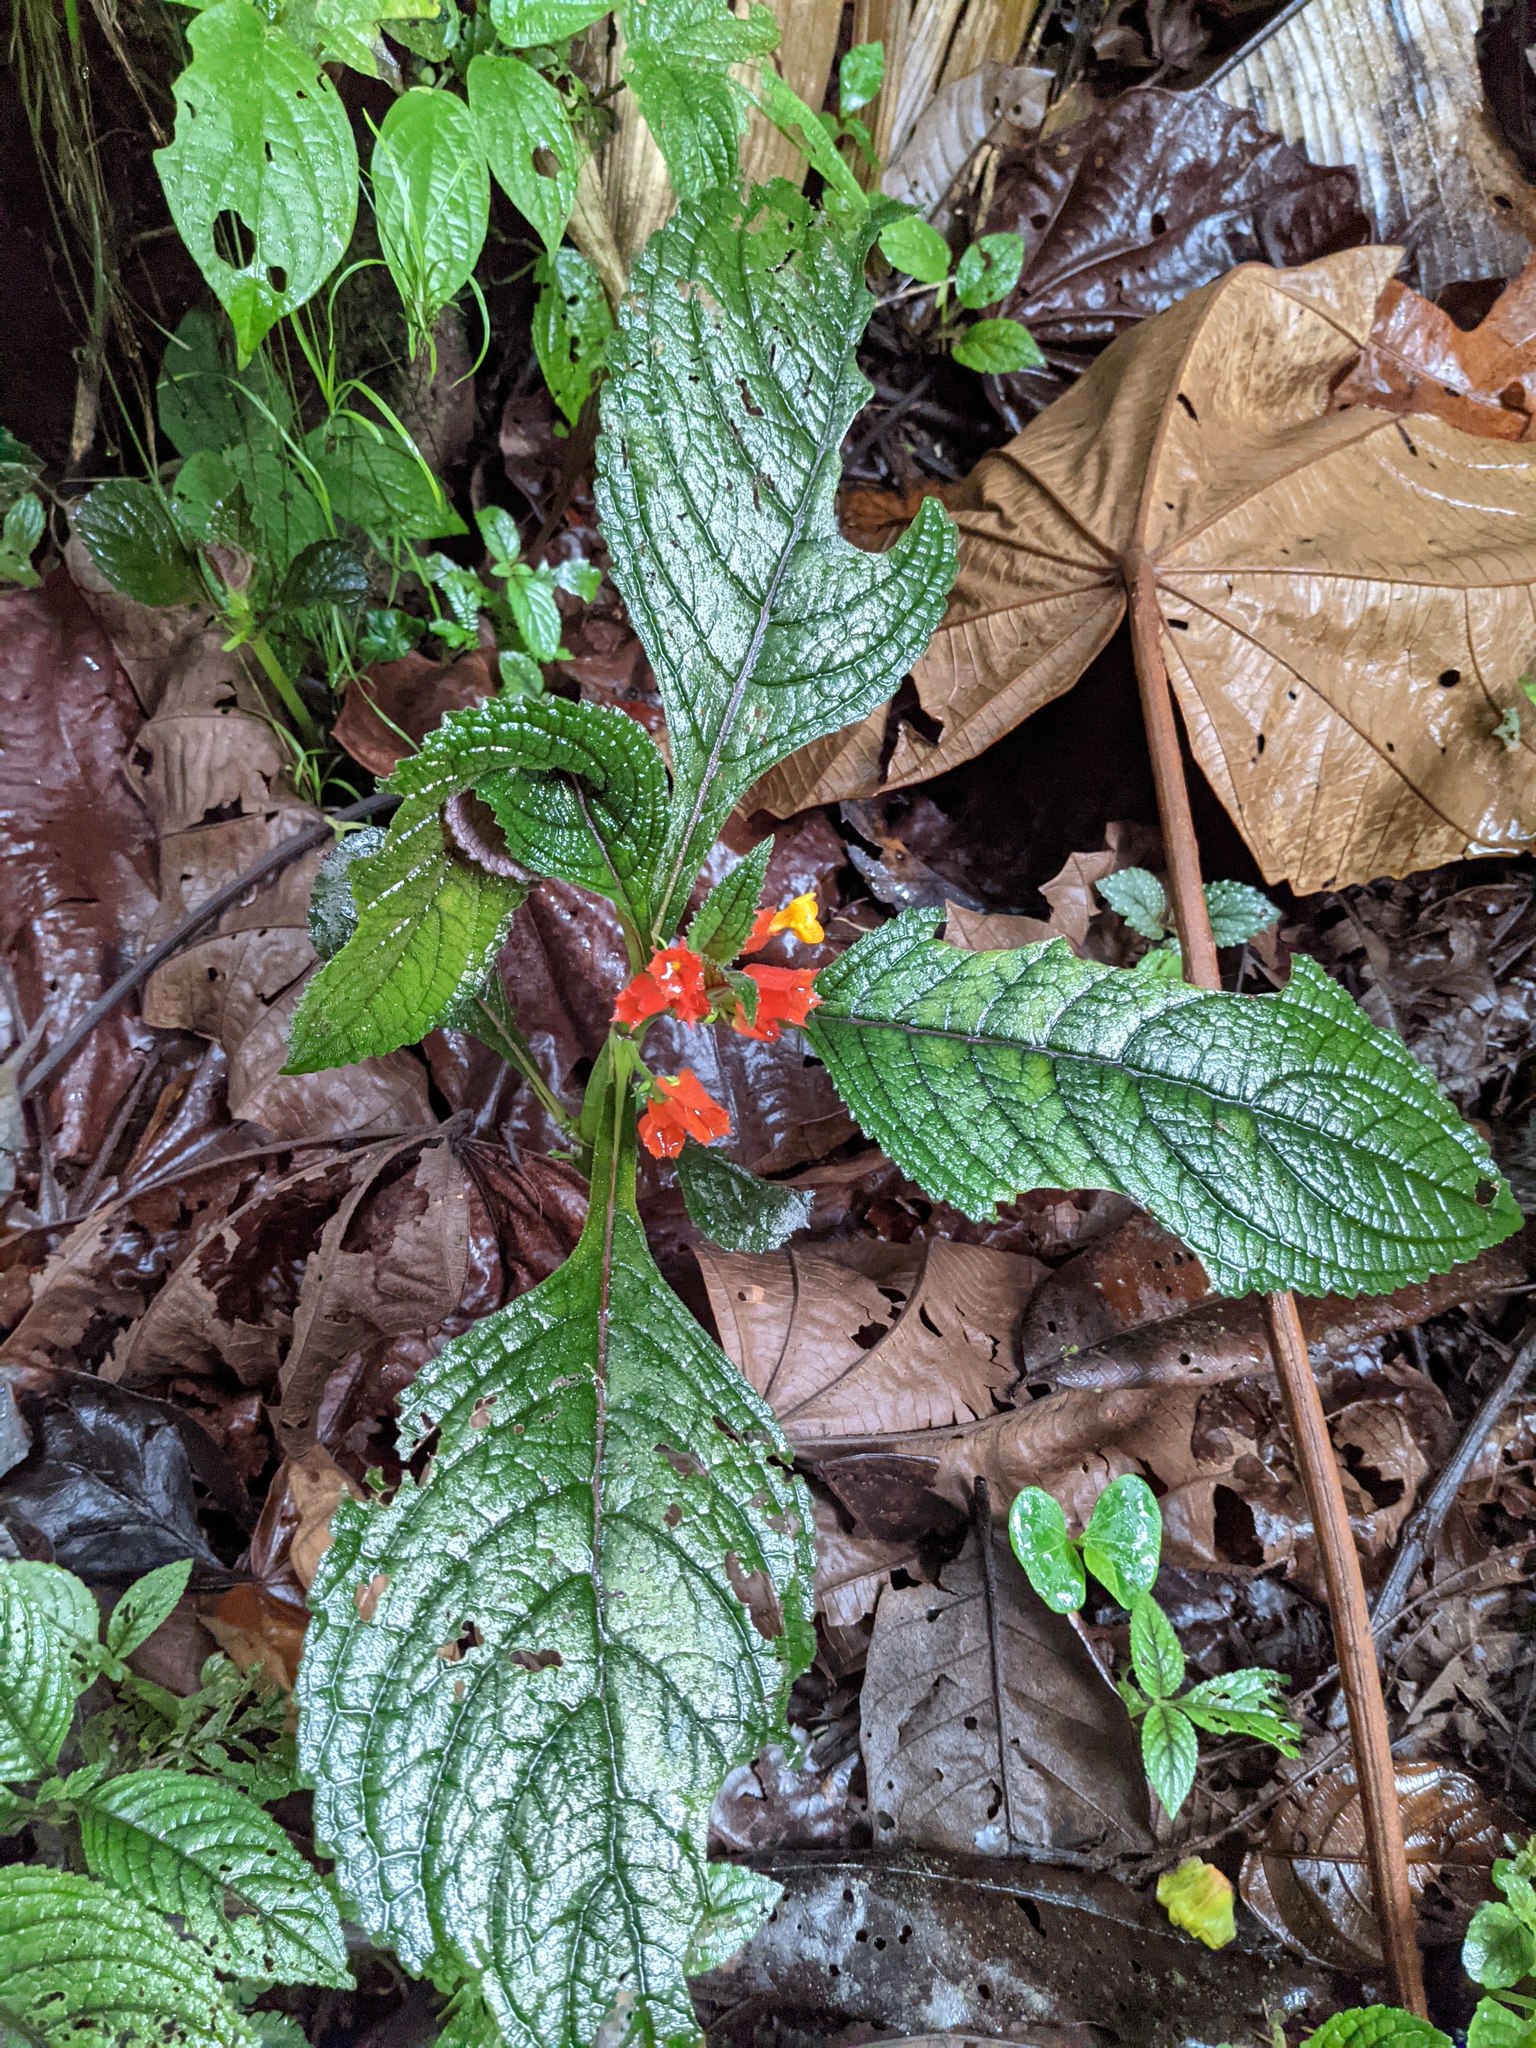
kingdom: Plantae
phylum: Tracheophyta
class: Magnoliopsida
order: Lamiales
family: Gesneriaceae
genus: Chrysothemis
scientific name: Chrysothemis pulchella
